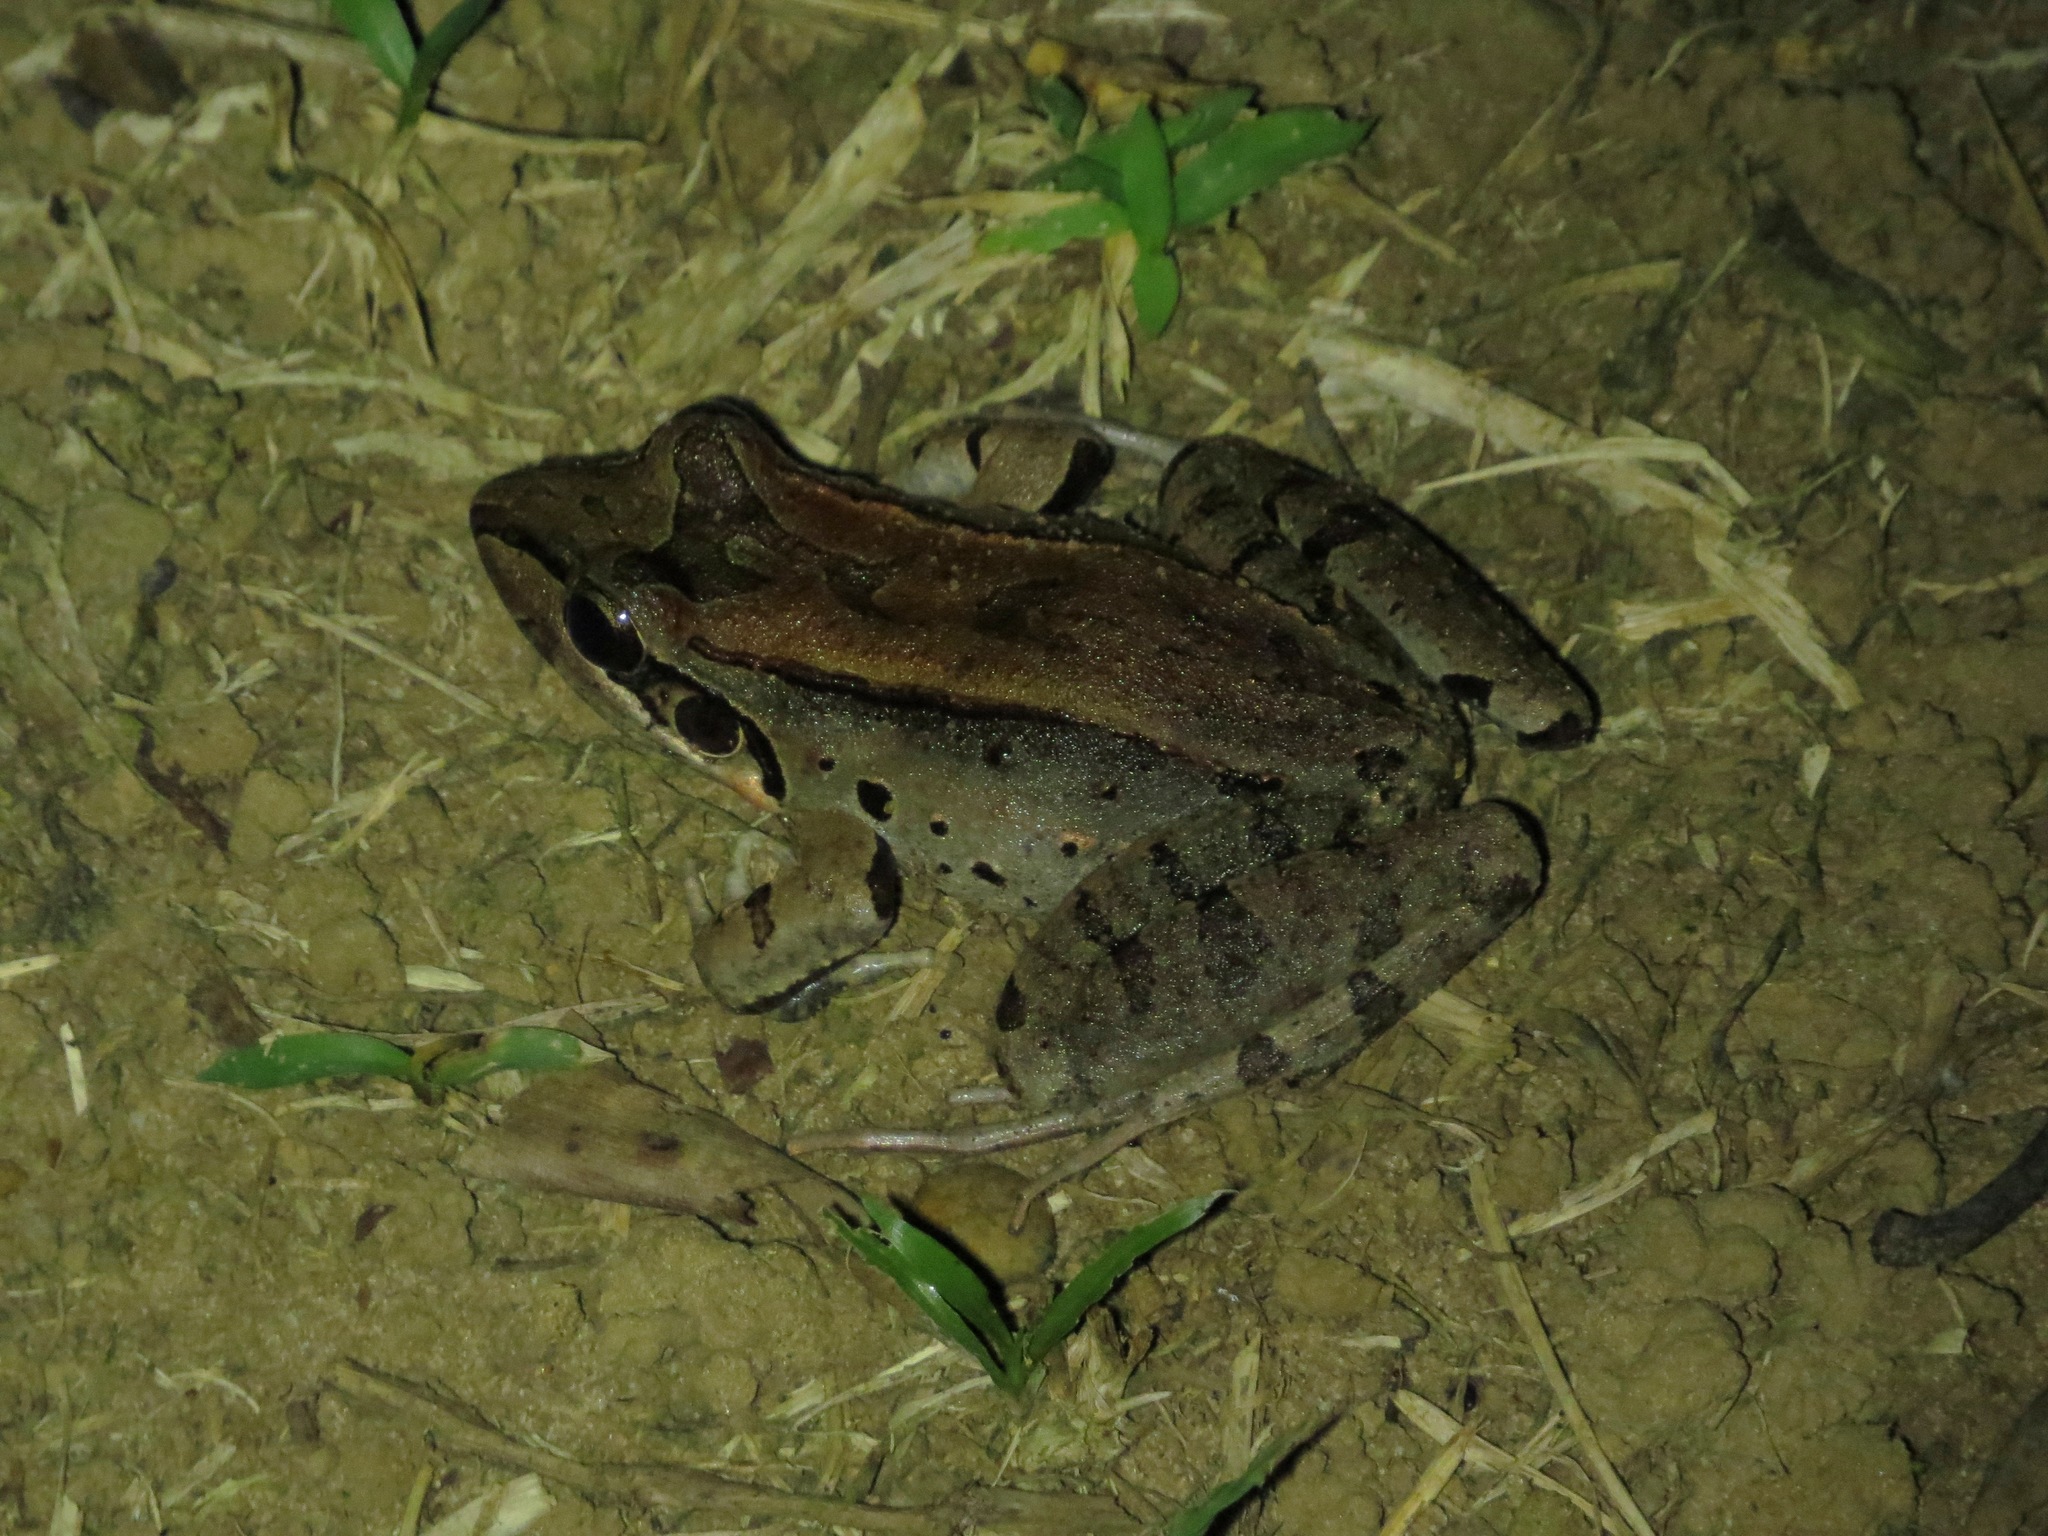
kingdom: Animalia
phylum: Chordata
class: Amphibia
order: Anura
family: Leptodactylidae
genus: Leptodactylus
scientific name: Leptodactylus guianensis
